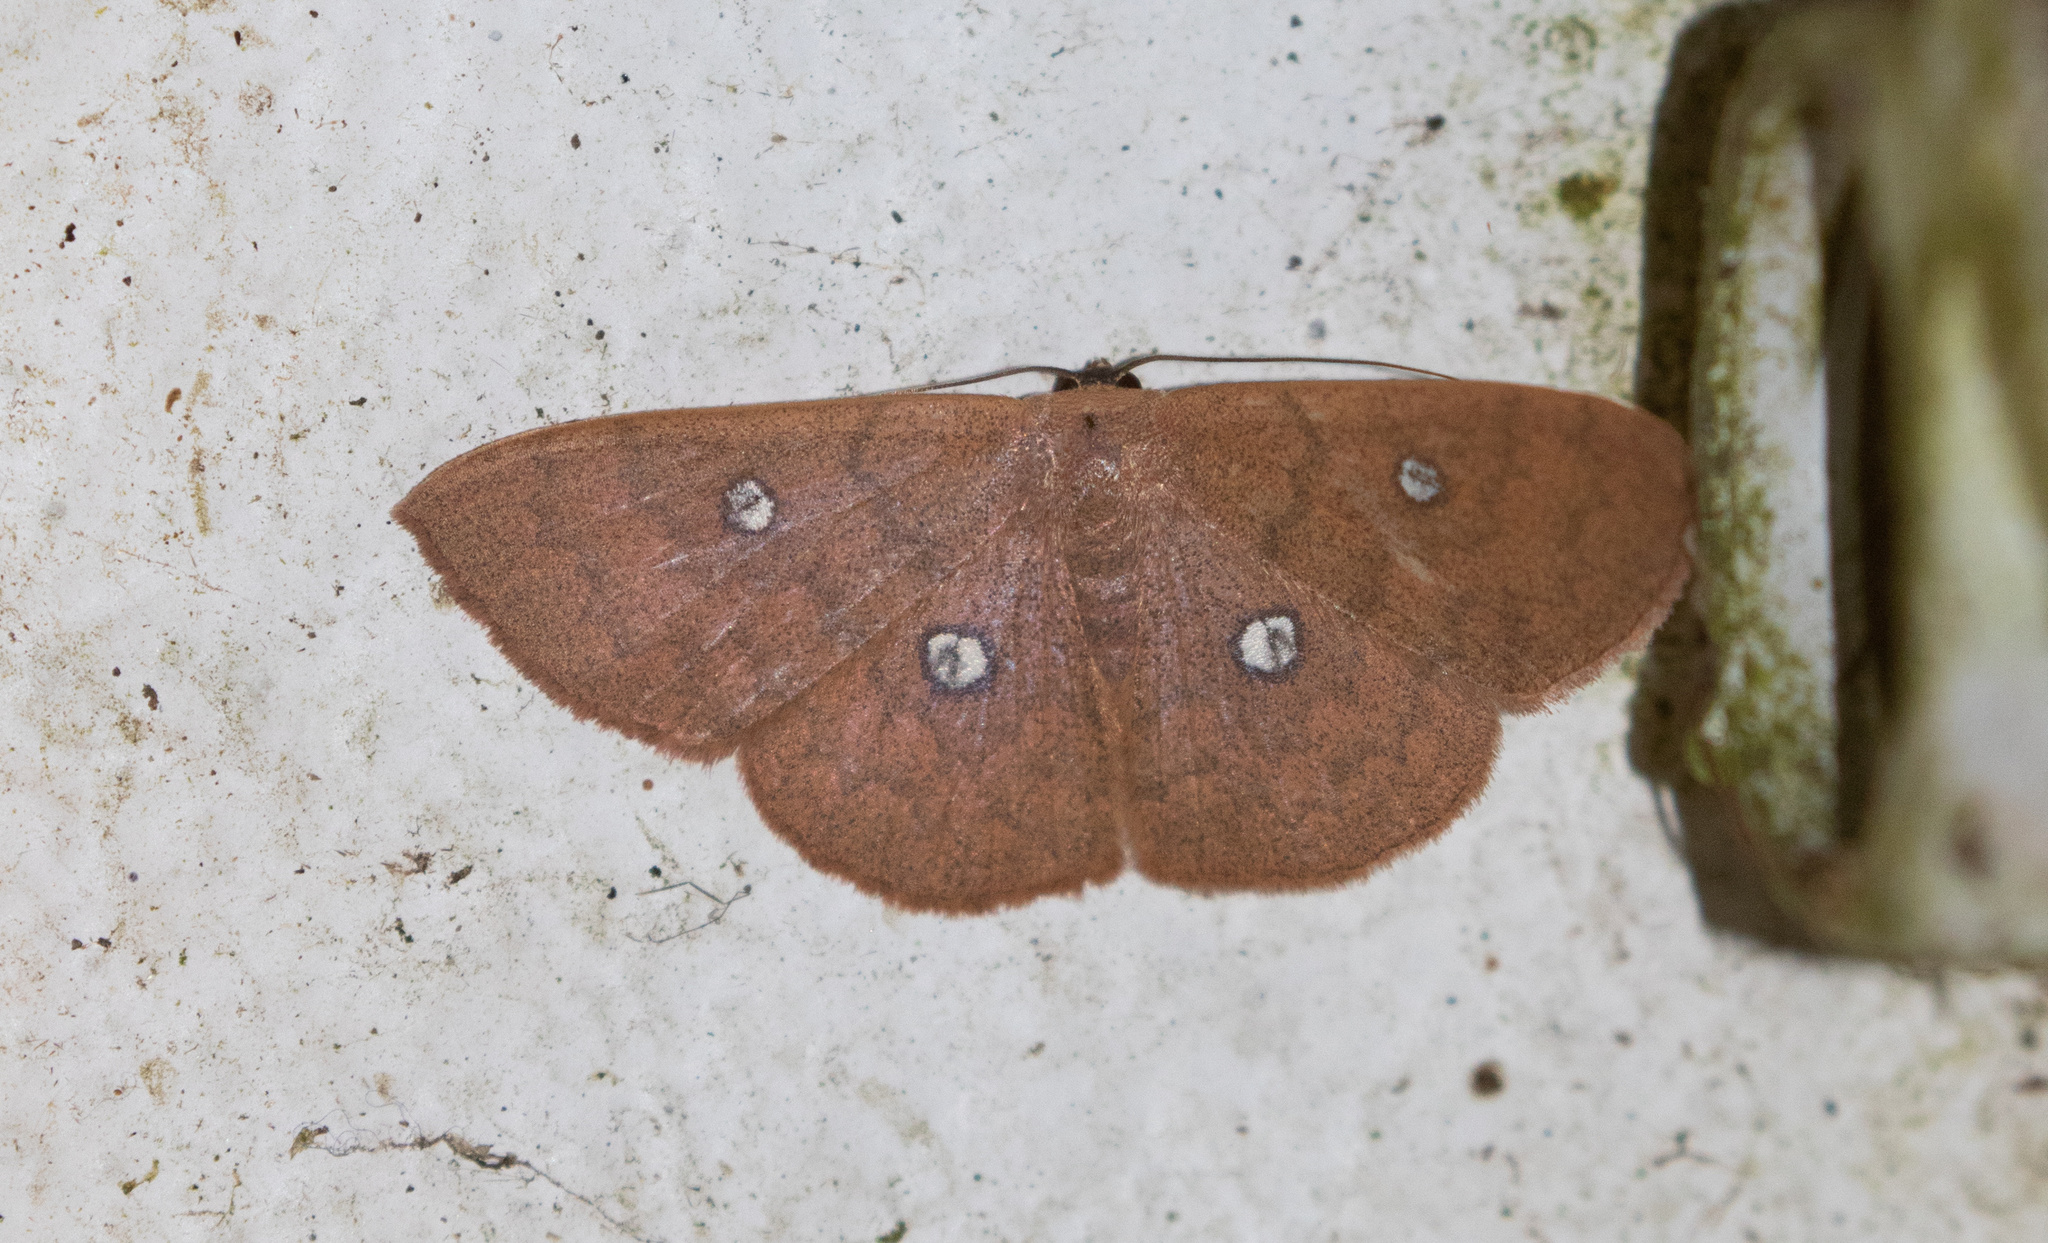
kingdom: Animalia
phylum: Arthropoda
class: Insecta
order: Lepidoptera
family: Geometridae
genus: Semaeopus
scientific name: Semaeopus illimitata
